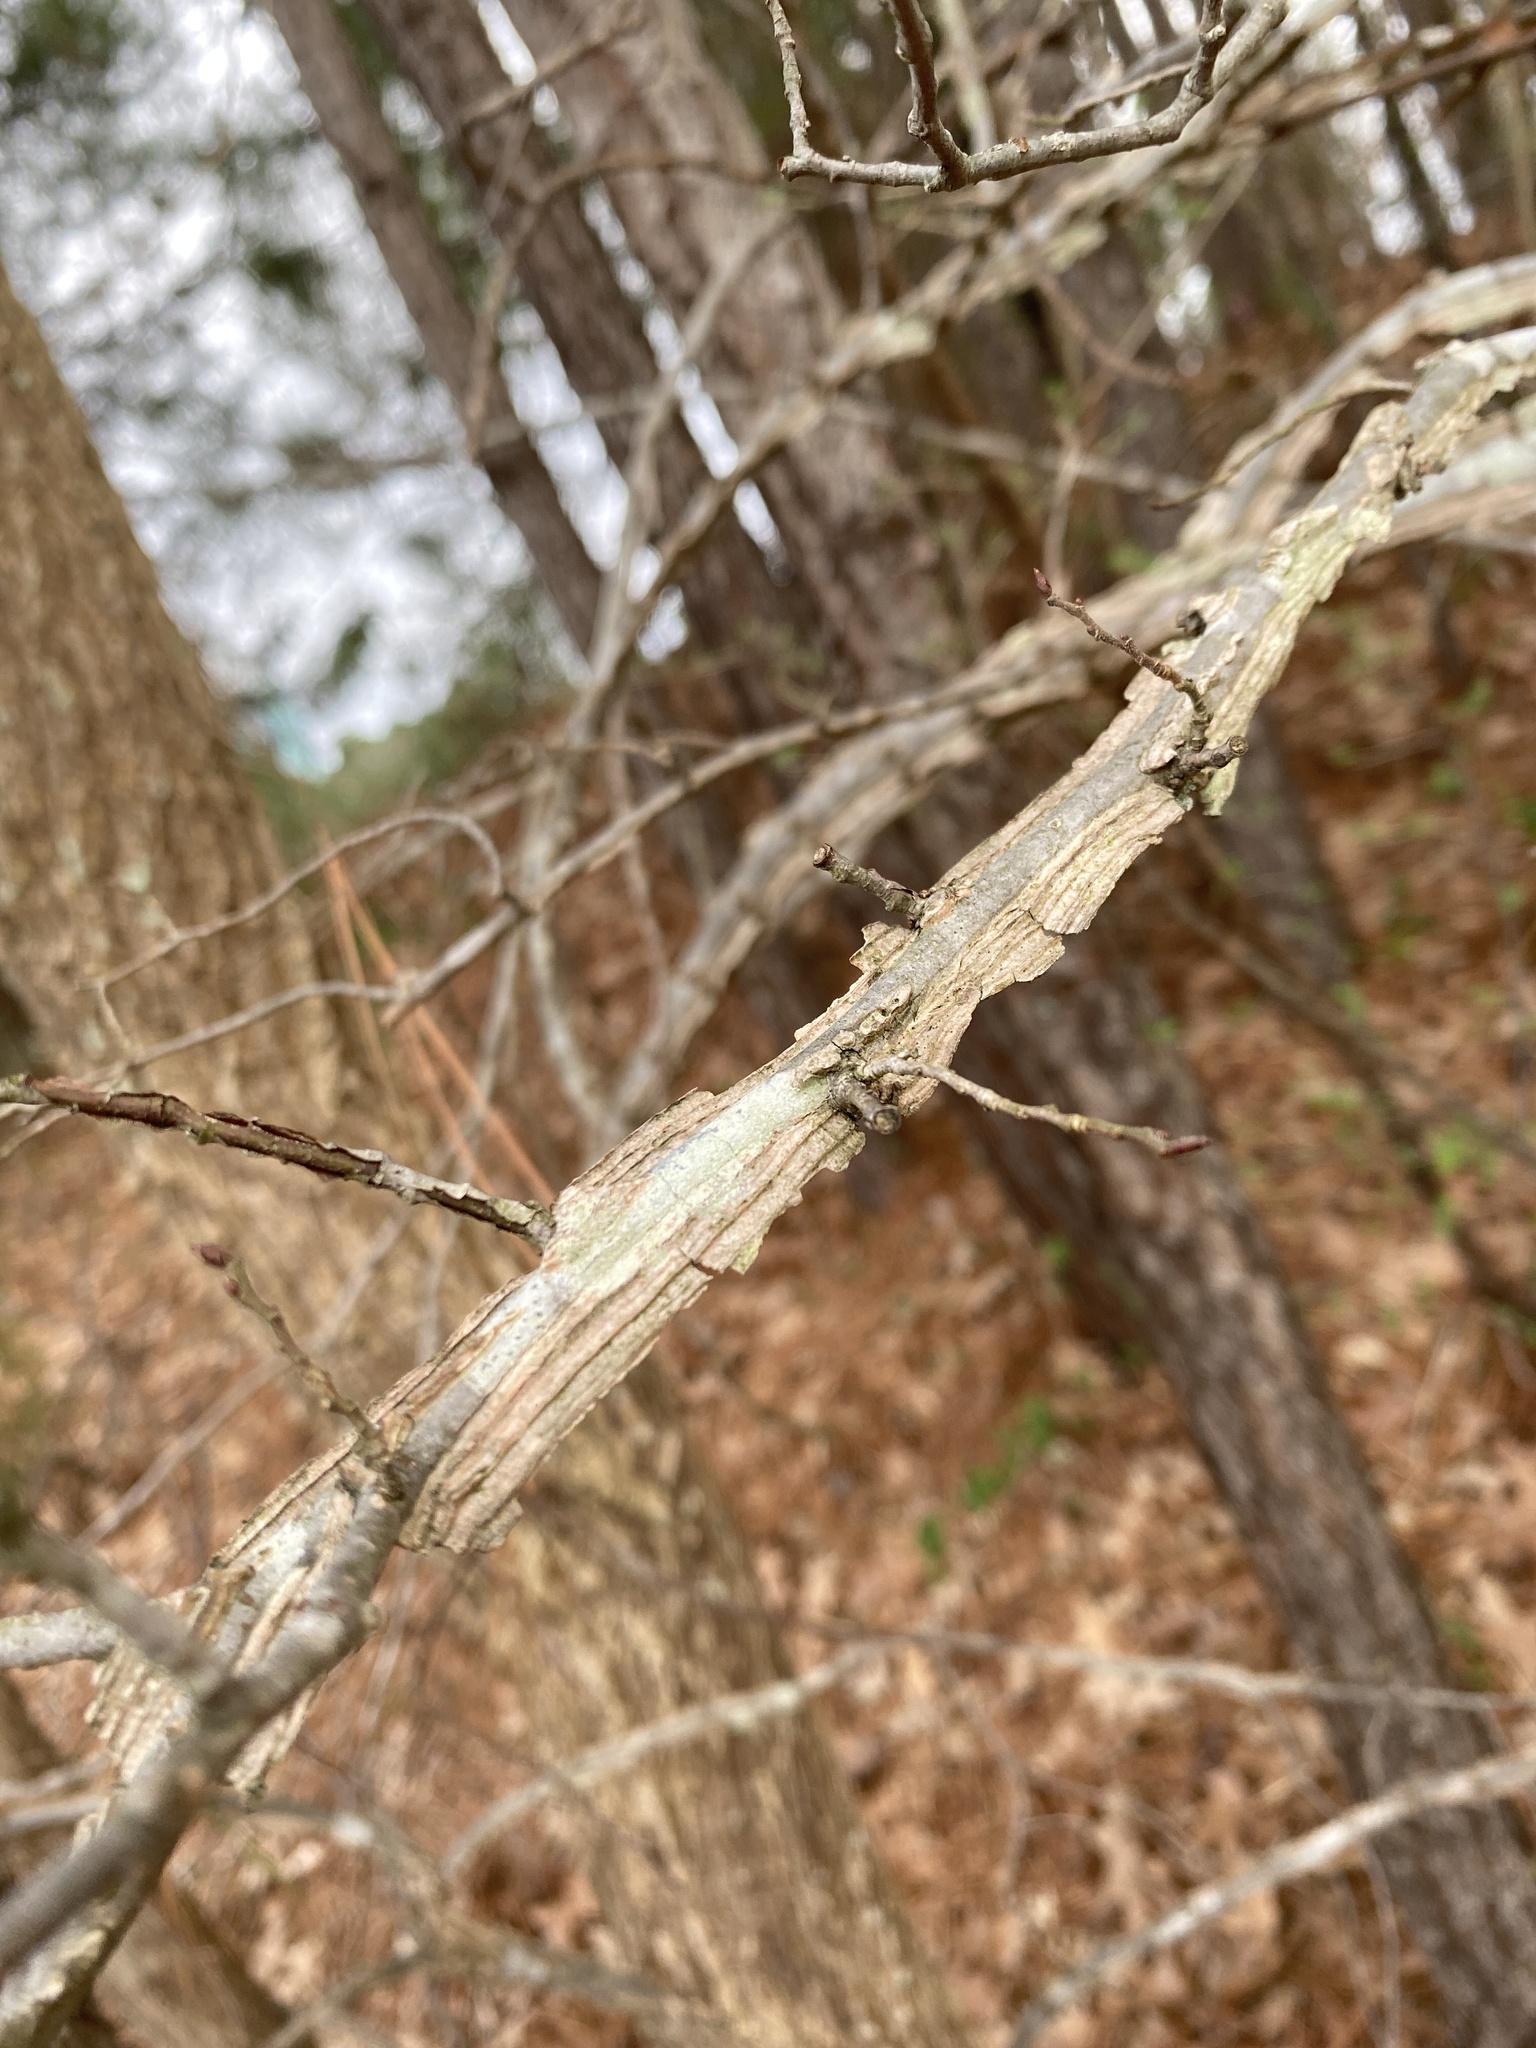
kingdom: Plantae
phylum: Tracheophyta
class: Magnoliopsida
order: Rosales
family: Ulmaceae
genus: Ulmus
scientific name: Ulmus alata
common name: Winged elm
